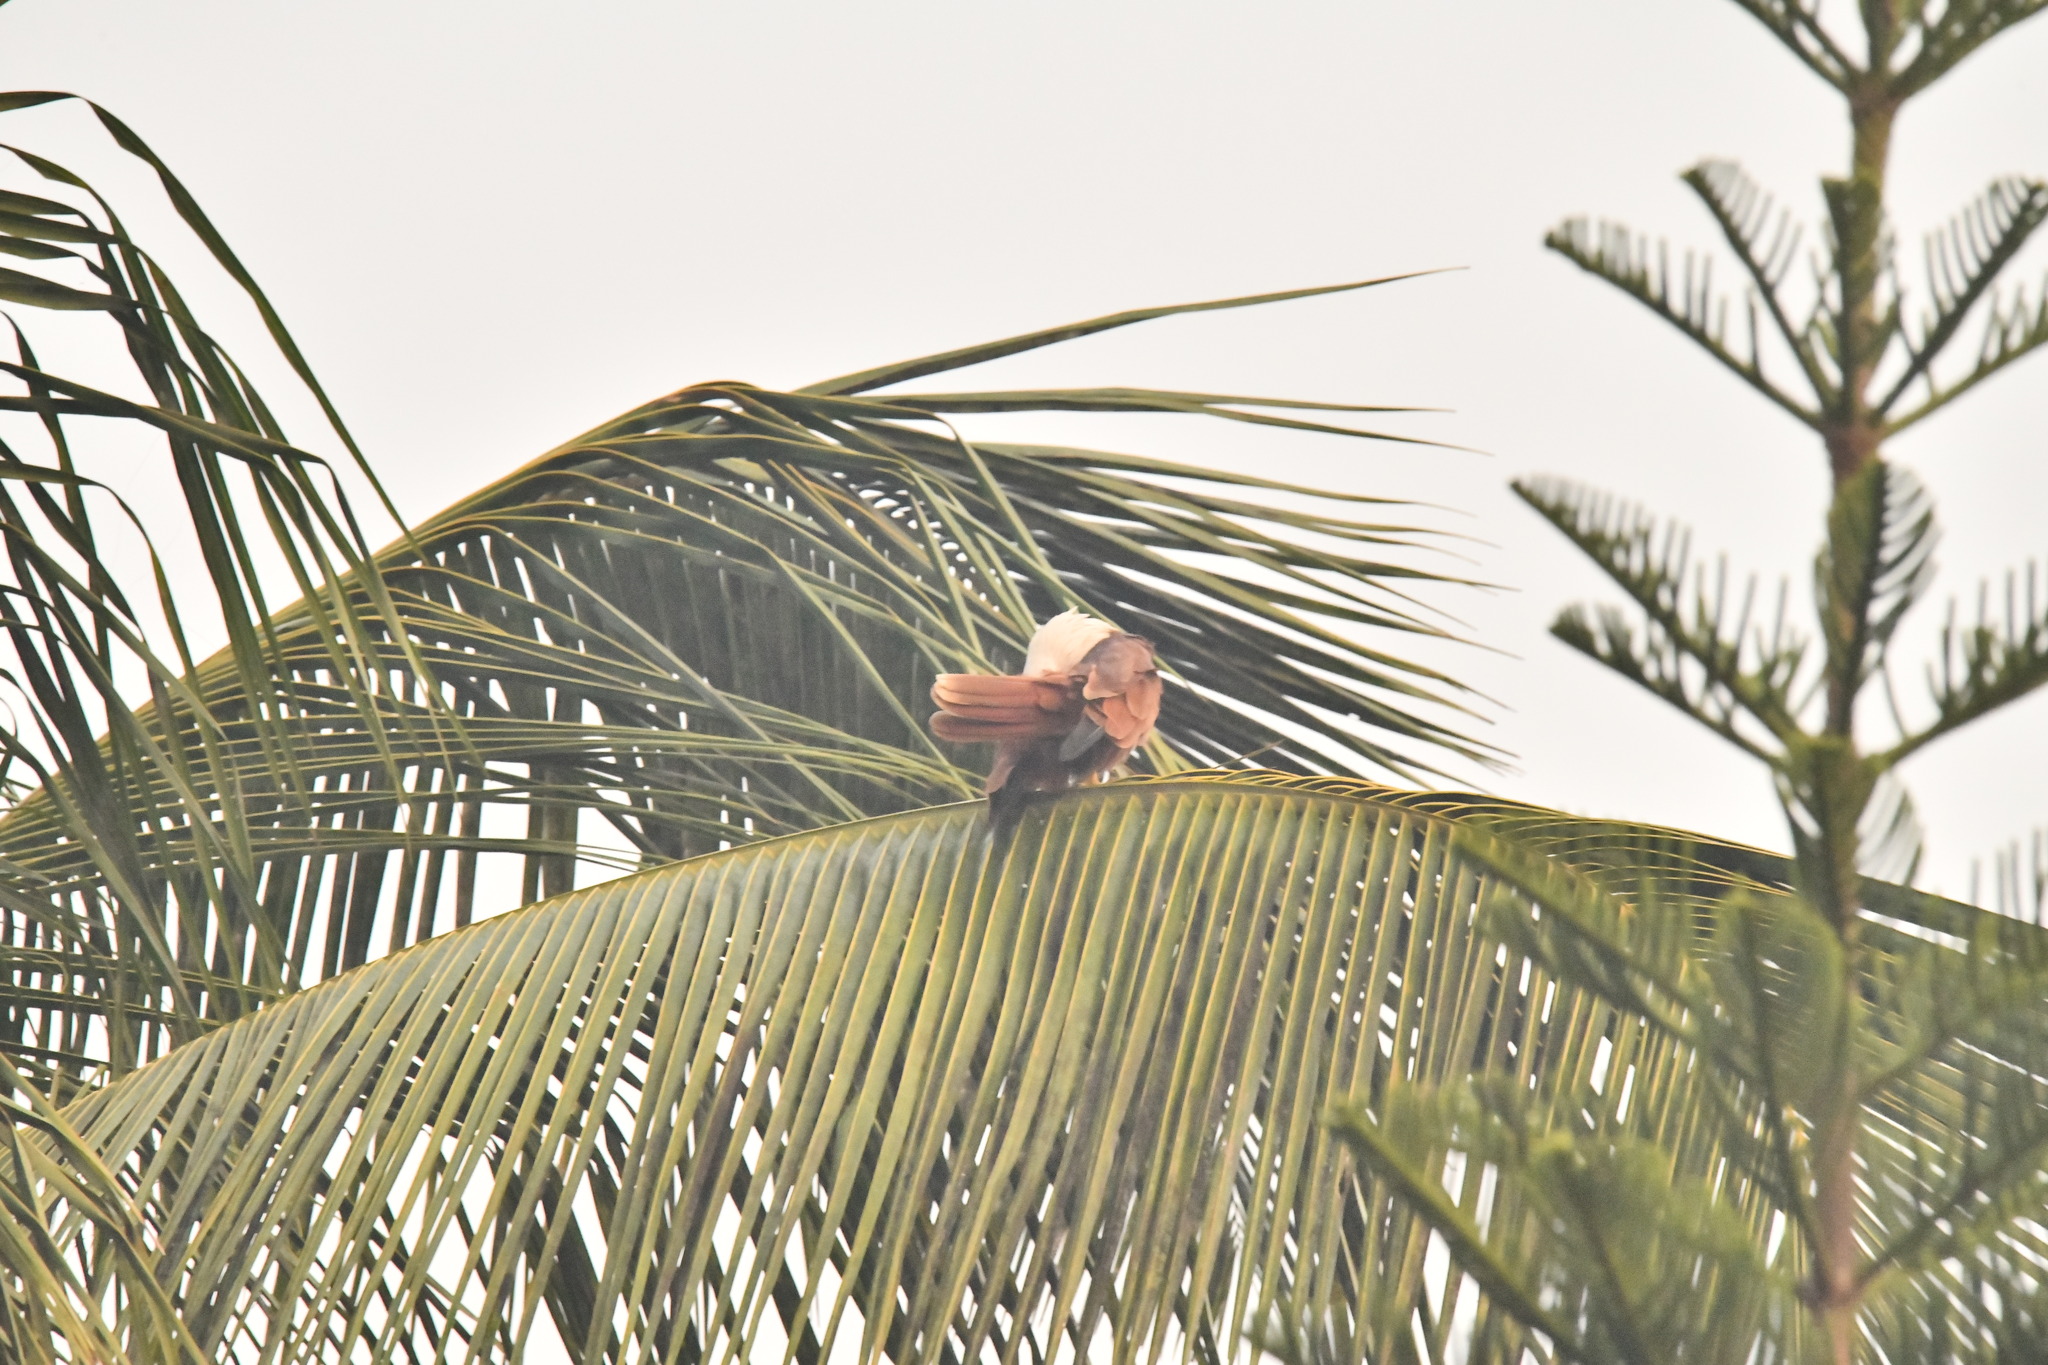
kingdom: Animalia
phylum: Chordata
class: Aves
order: Accipitriformes
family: Accipitridae
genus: Haliastur
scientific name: Haliastur indus
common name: Brahminy kite
